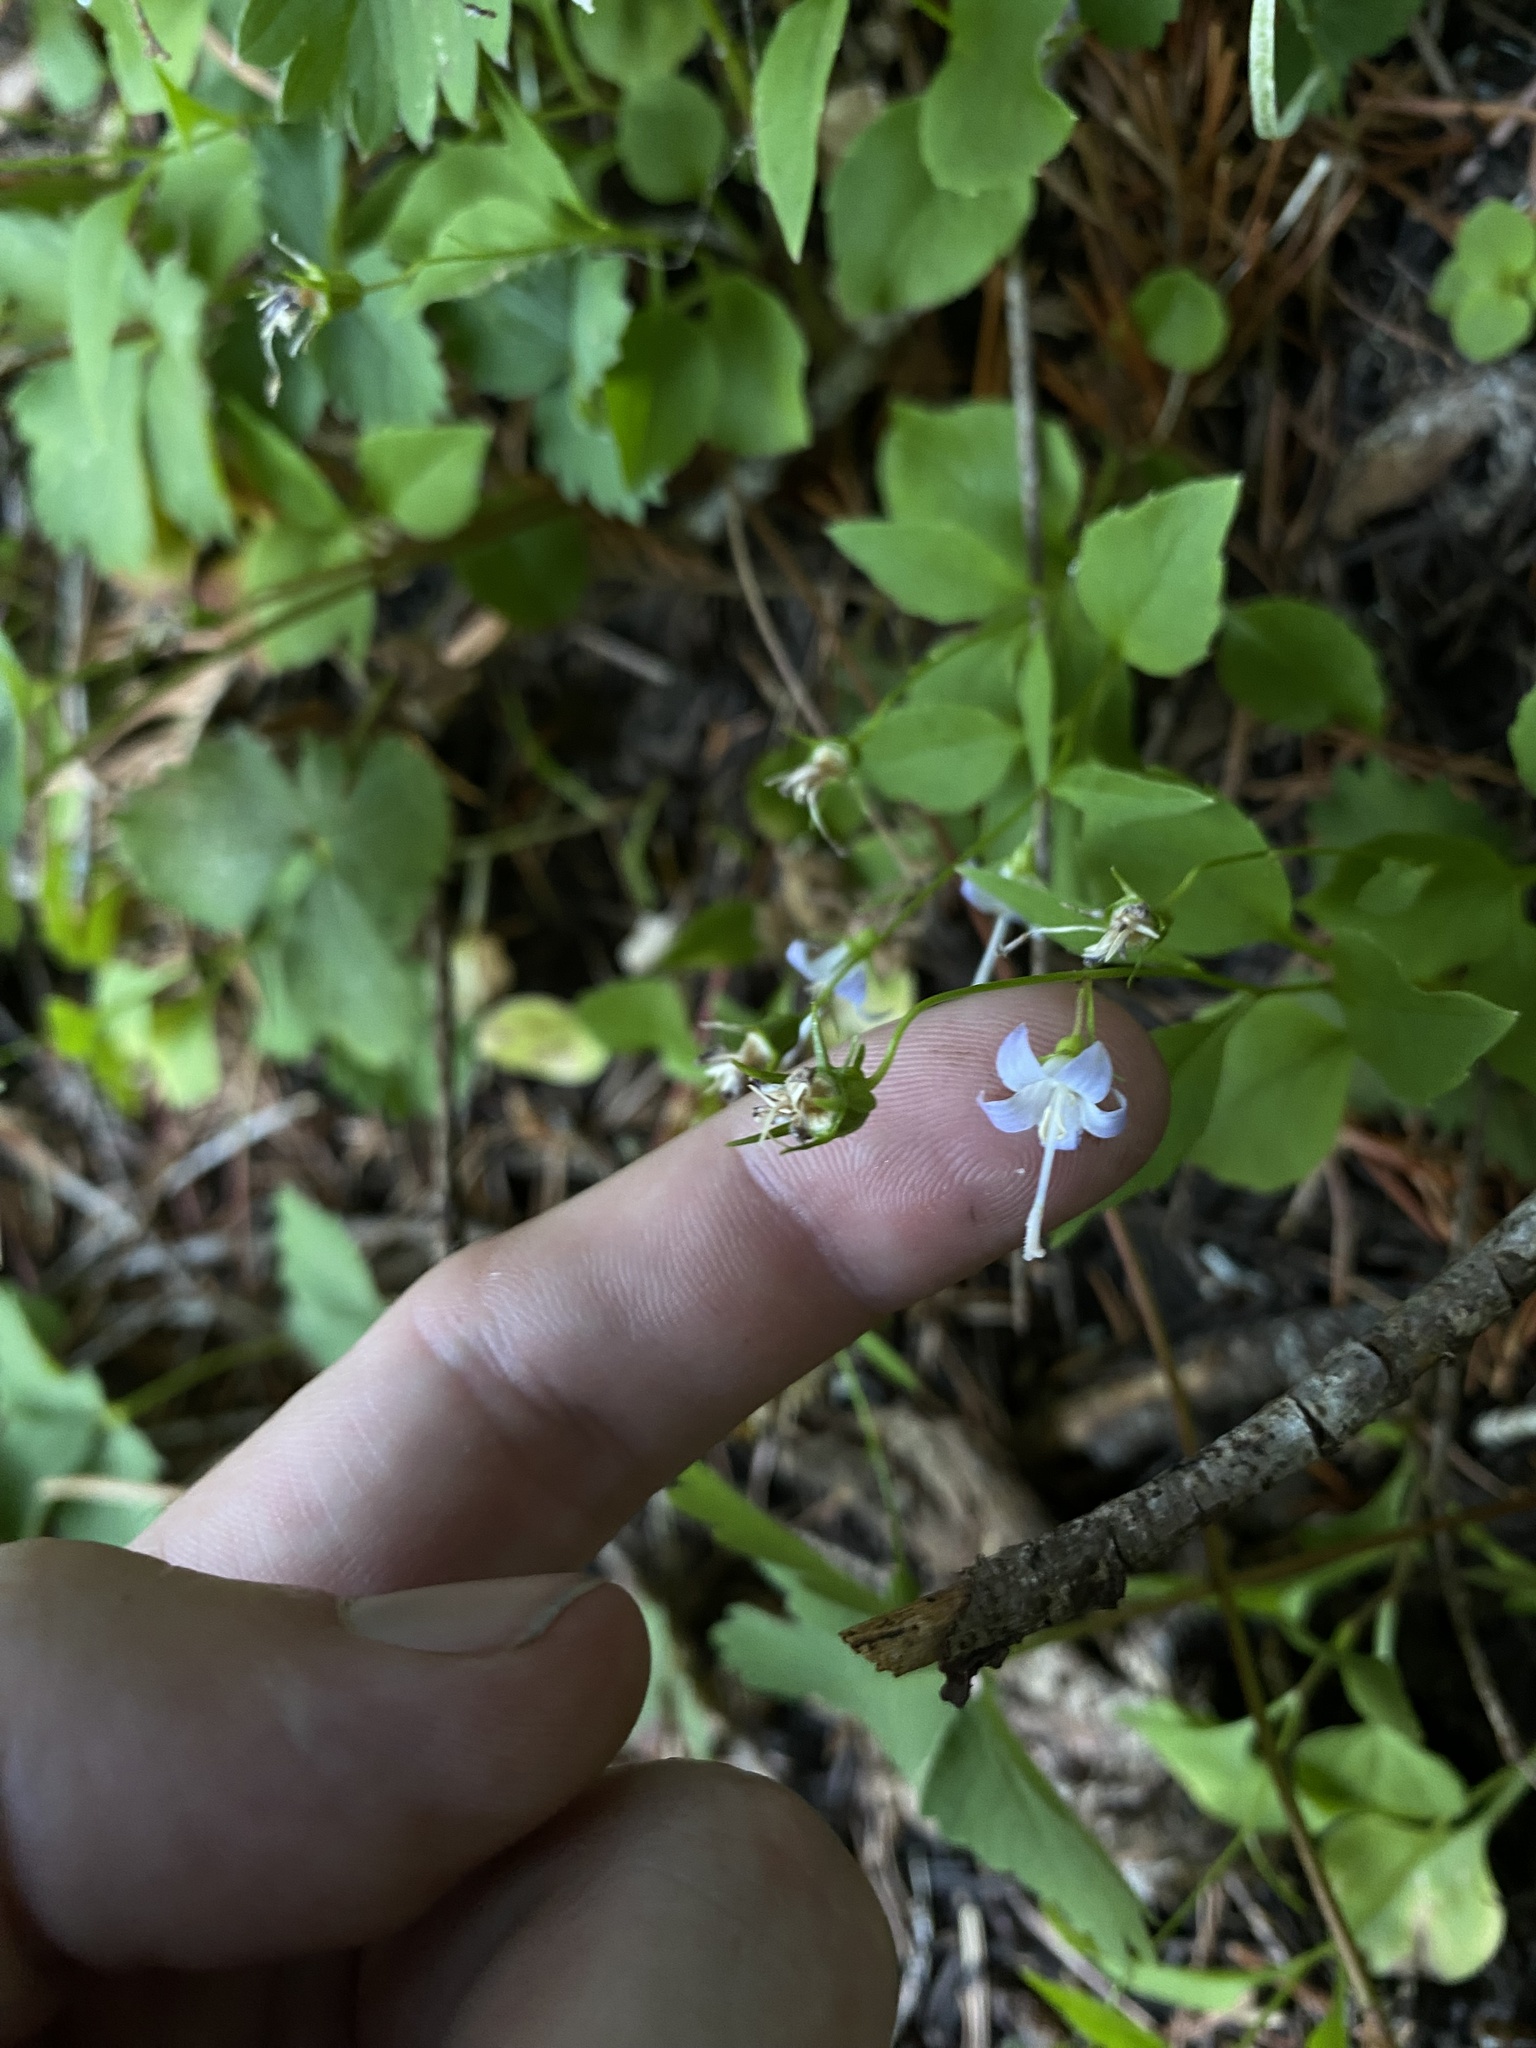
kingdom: Plantae
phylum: Tracheophyta
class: Magnoliopsida
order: Asterales
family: Campanulaceae
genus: Campanula
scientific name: Campanula scouleri
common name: Scouler's harebell
